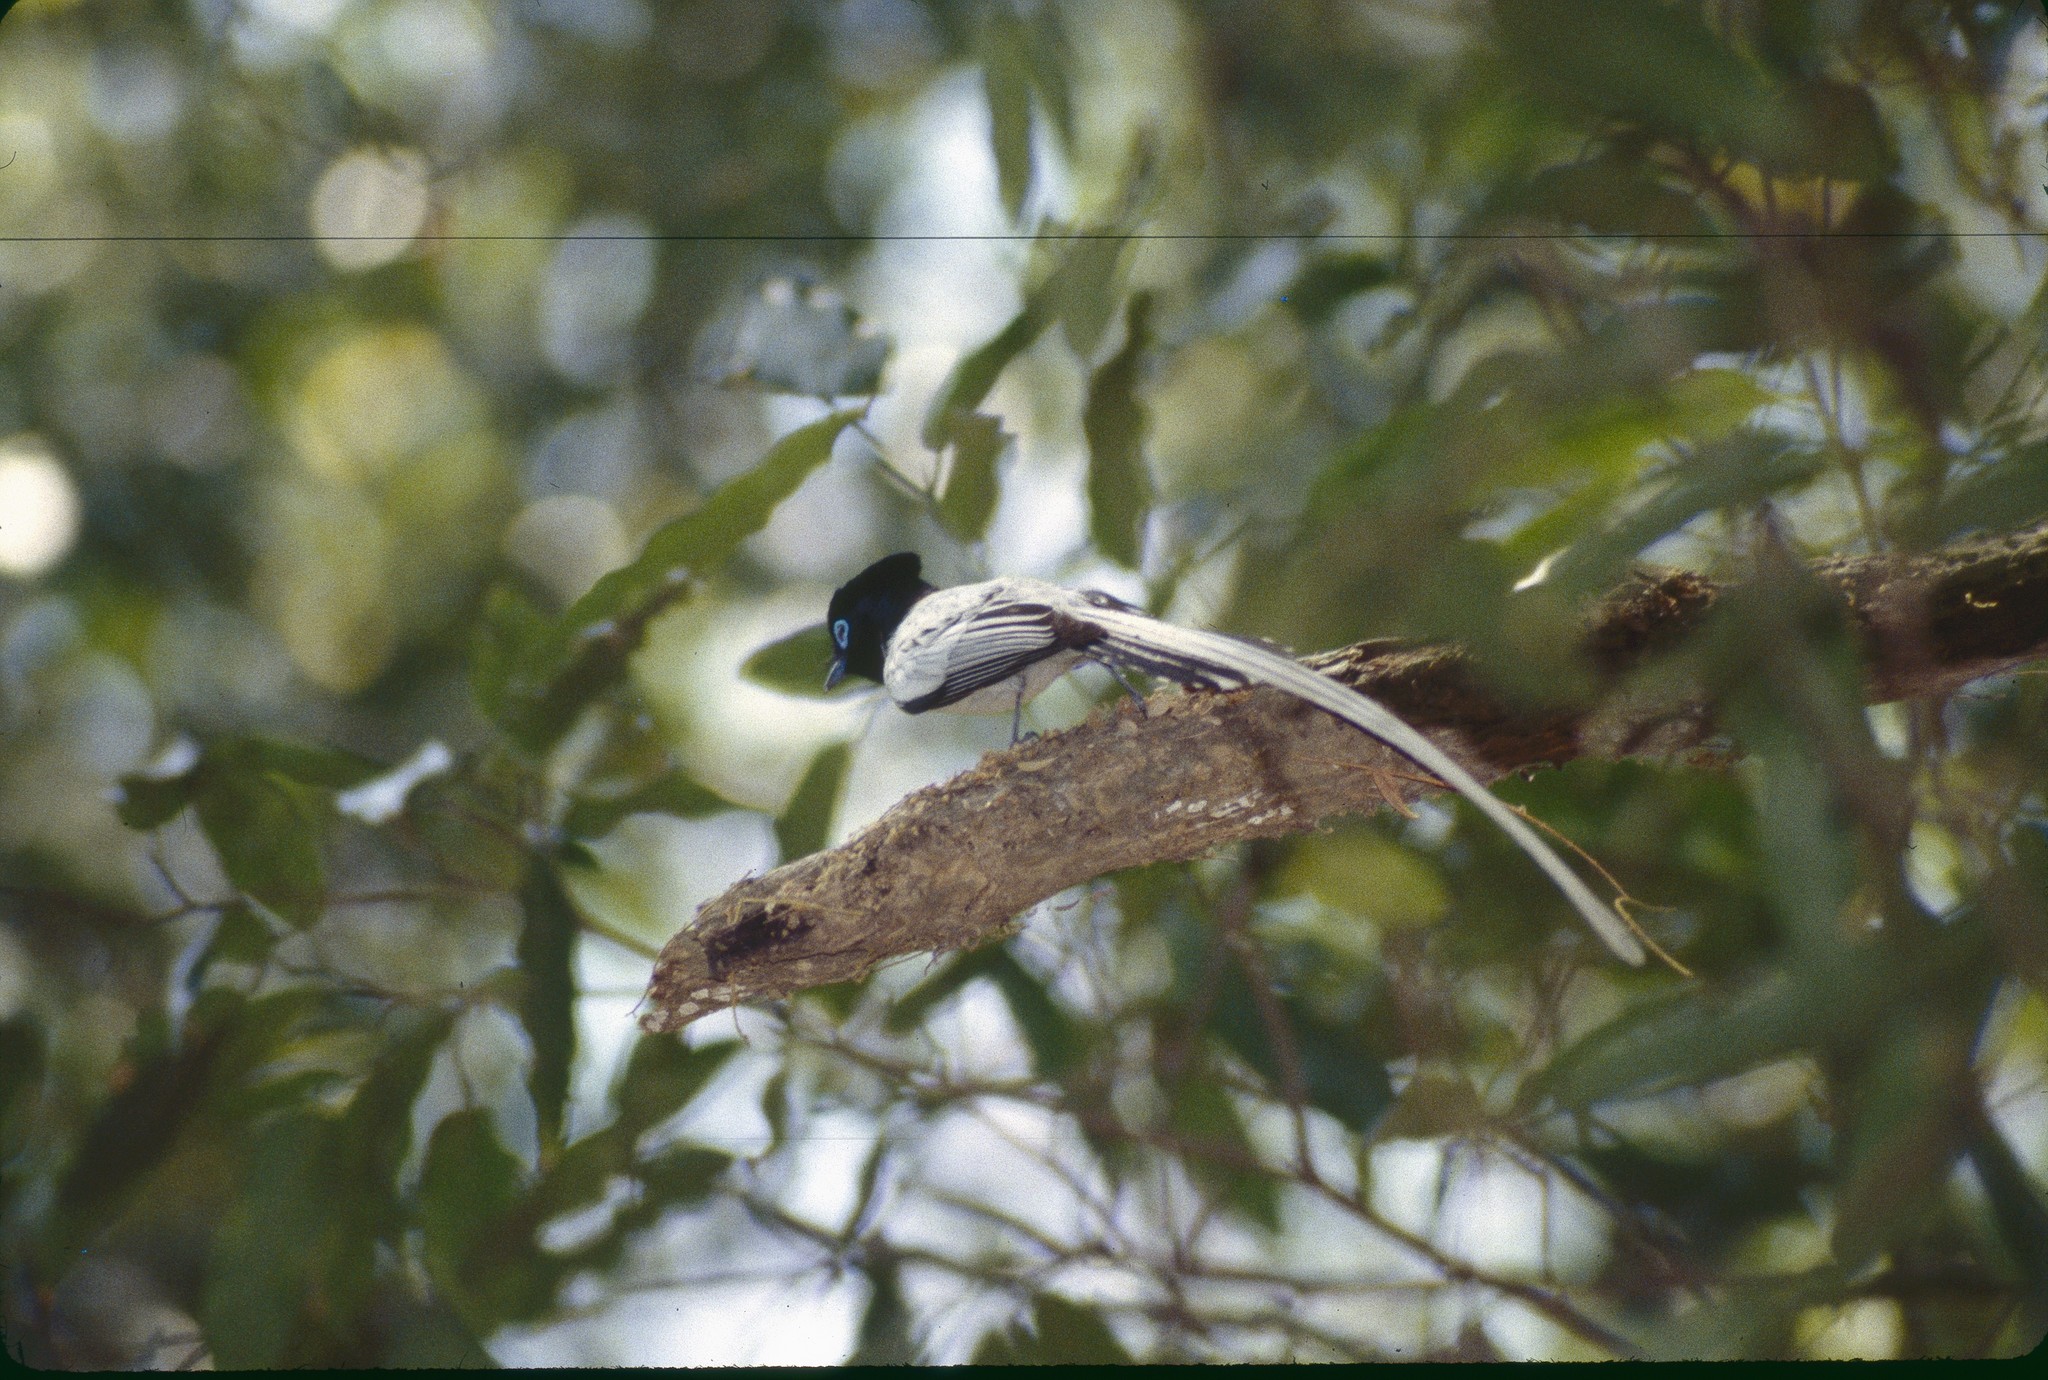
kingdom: Animalia
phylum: Chordata
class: Aves
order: Passeriformes
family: Monarchidae
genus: Terpsiphone
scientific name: Terpsiphone mutata
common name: Malagasy paradise flycatcher
